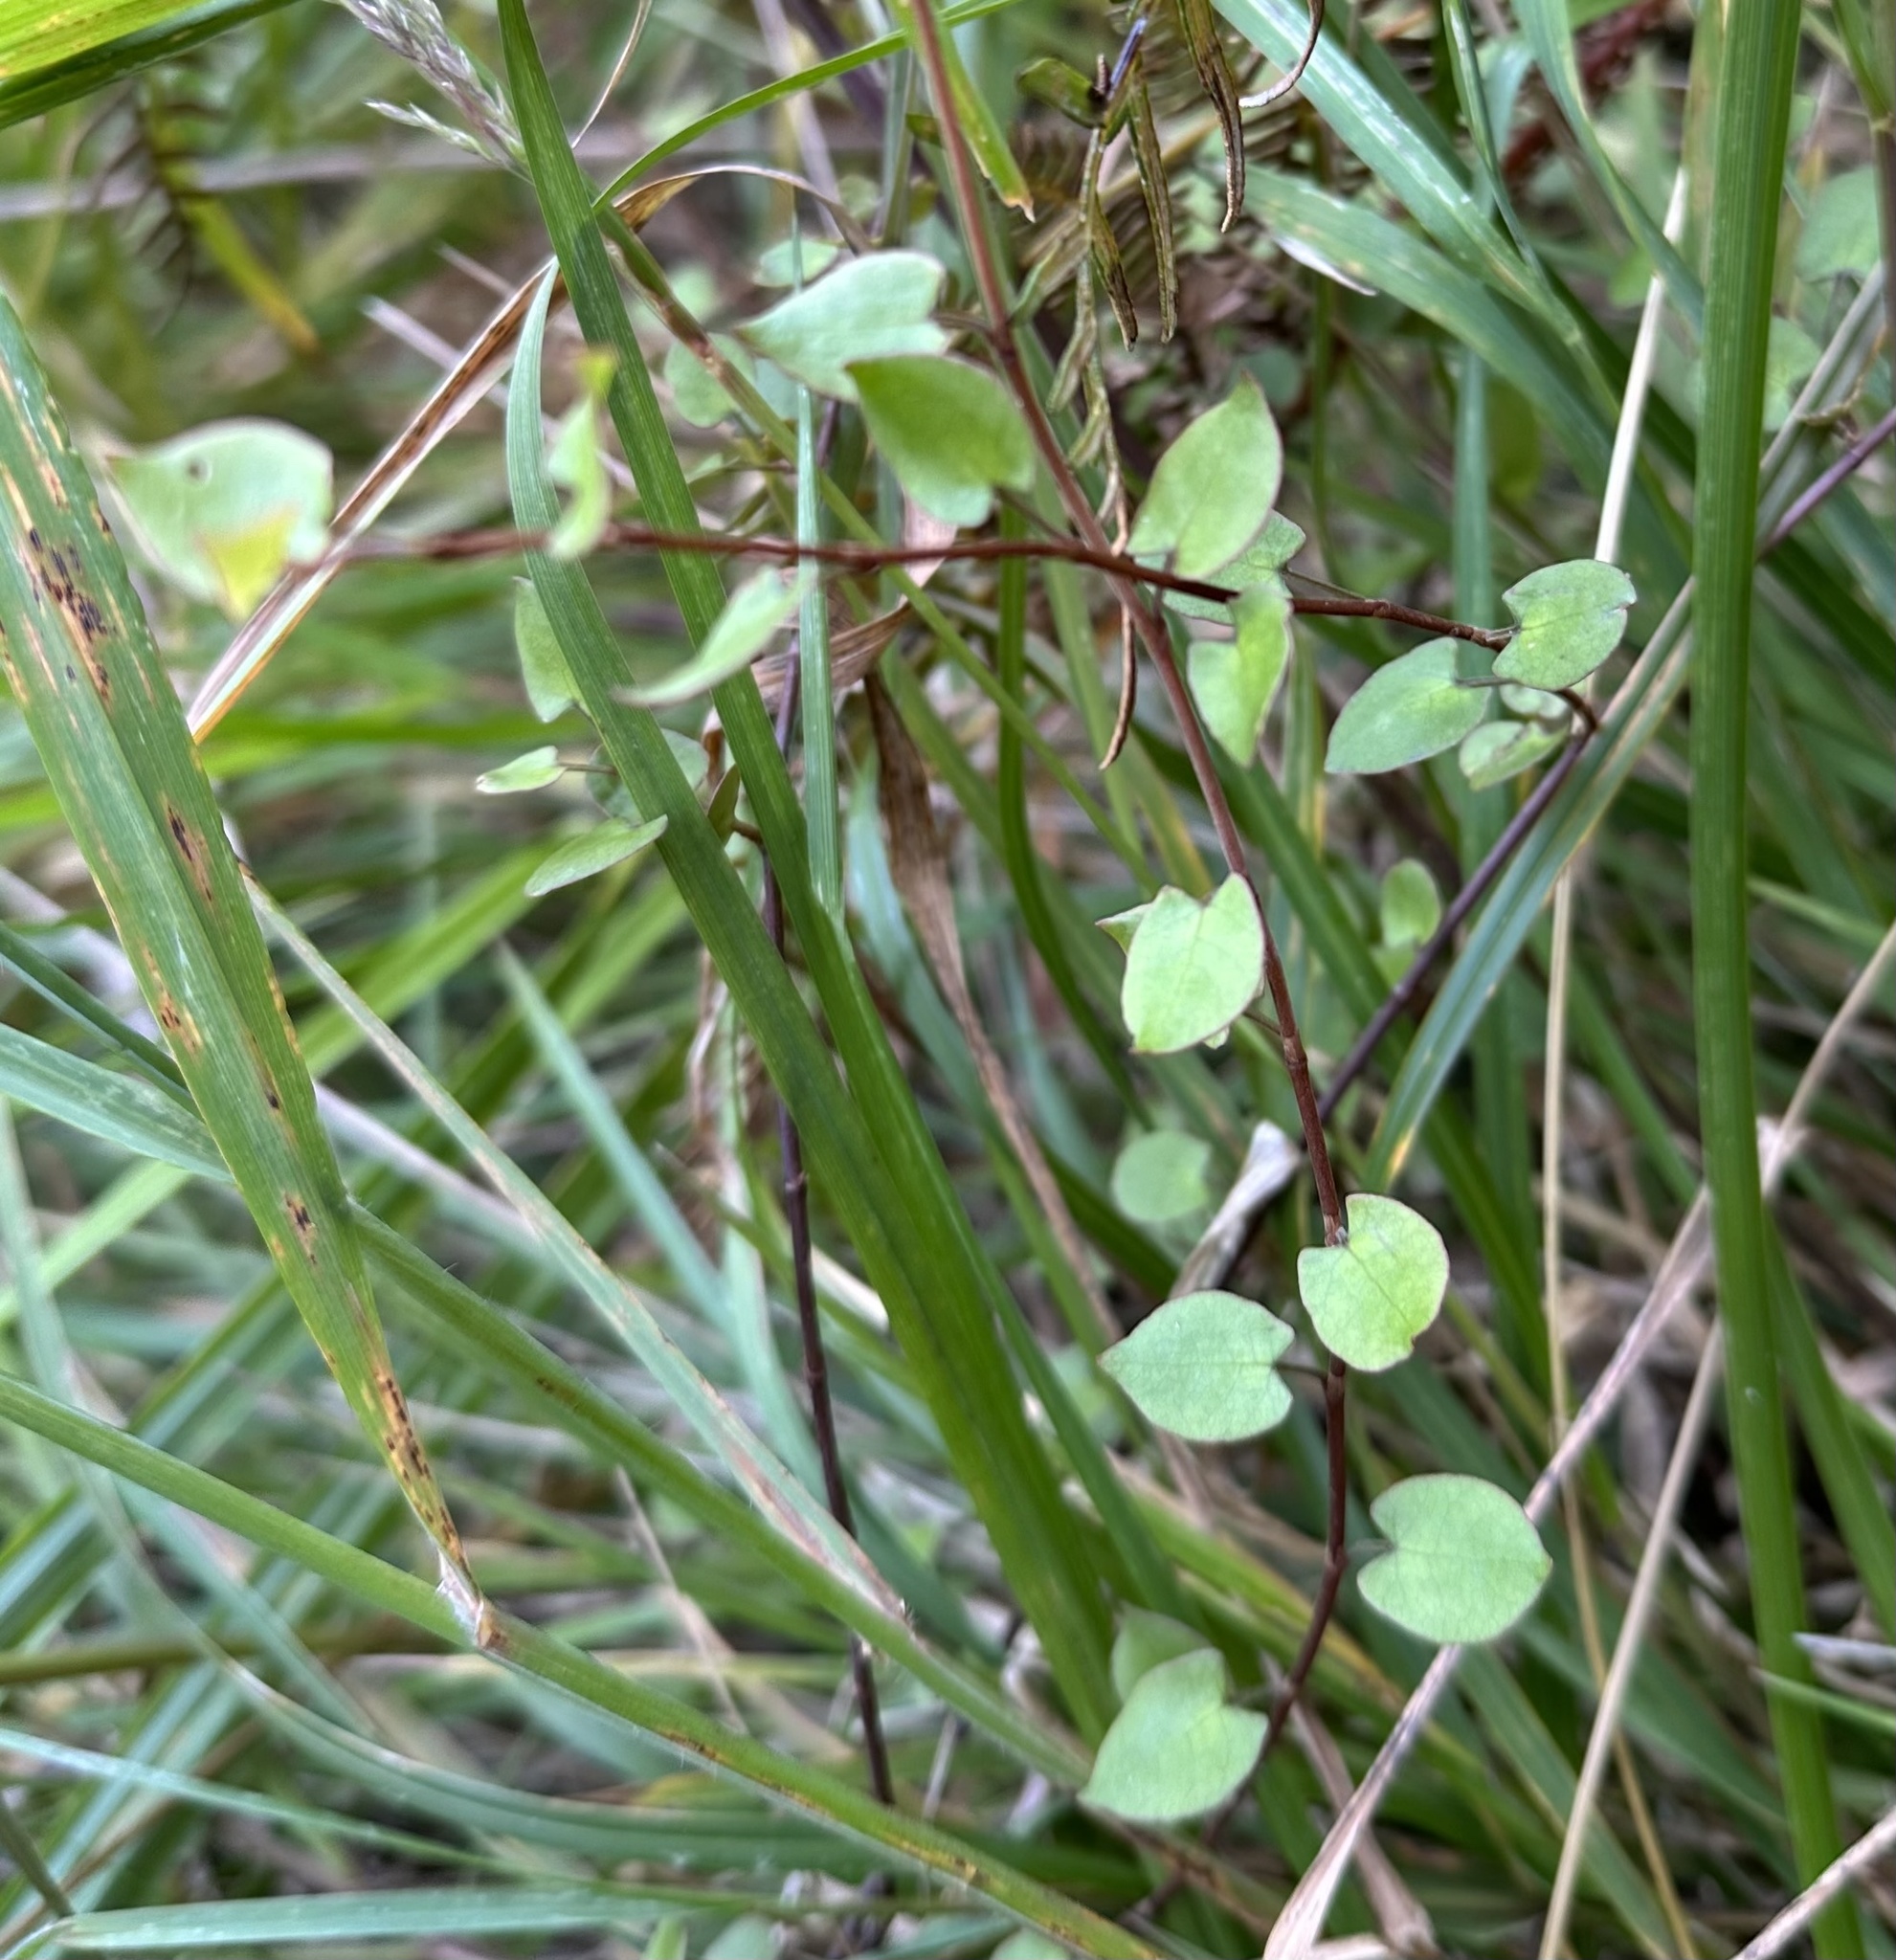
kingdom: Plantae
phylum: Tracheophyta
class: Magnoliopsida
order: Caryophyllales
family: Polygonaceae
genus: Muehlenbeckia
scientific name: Muehlenbeckia australis
